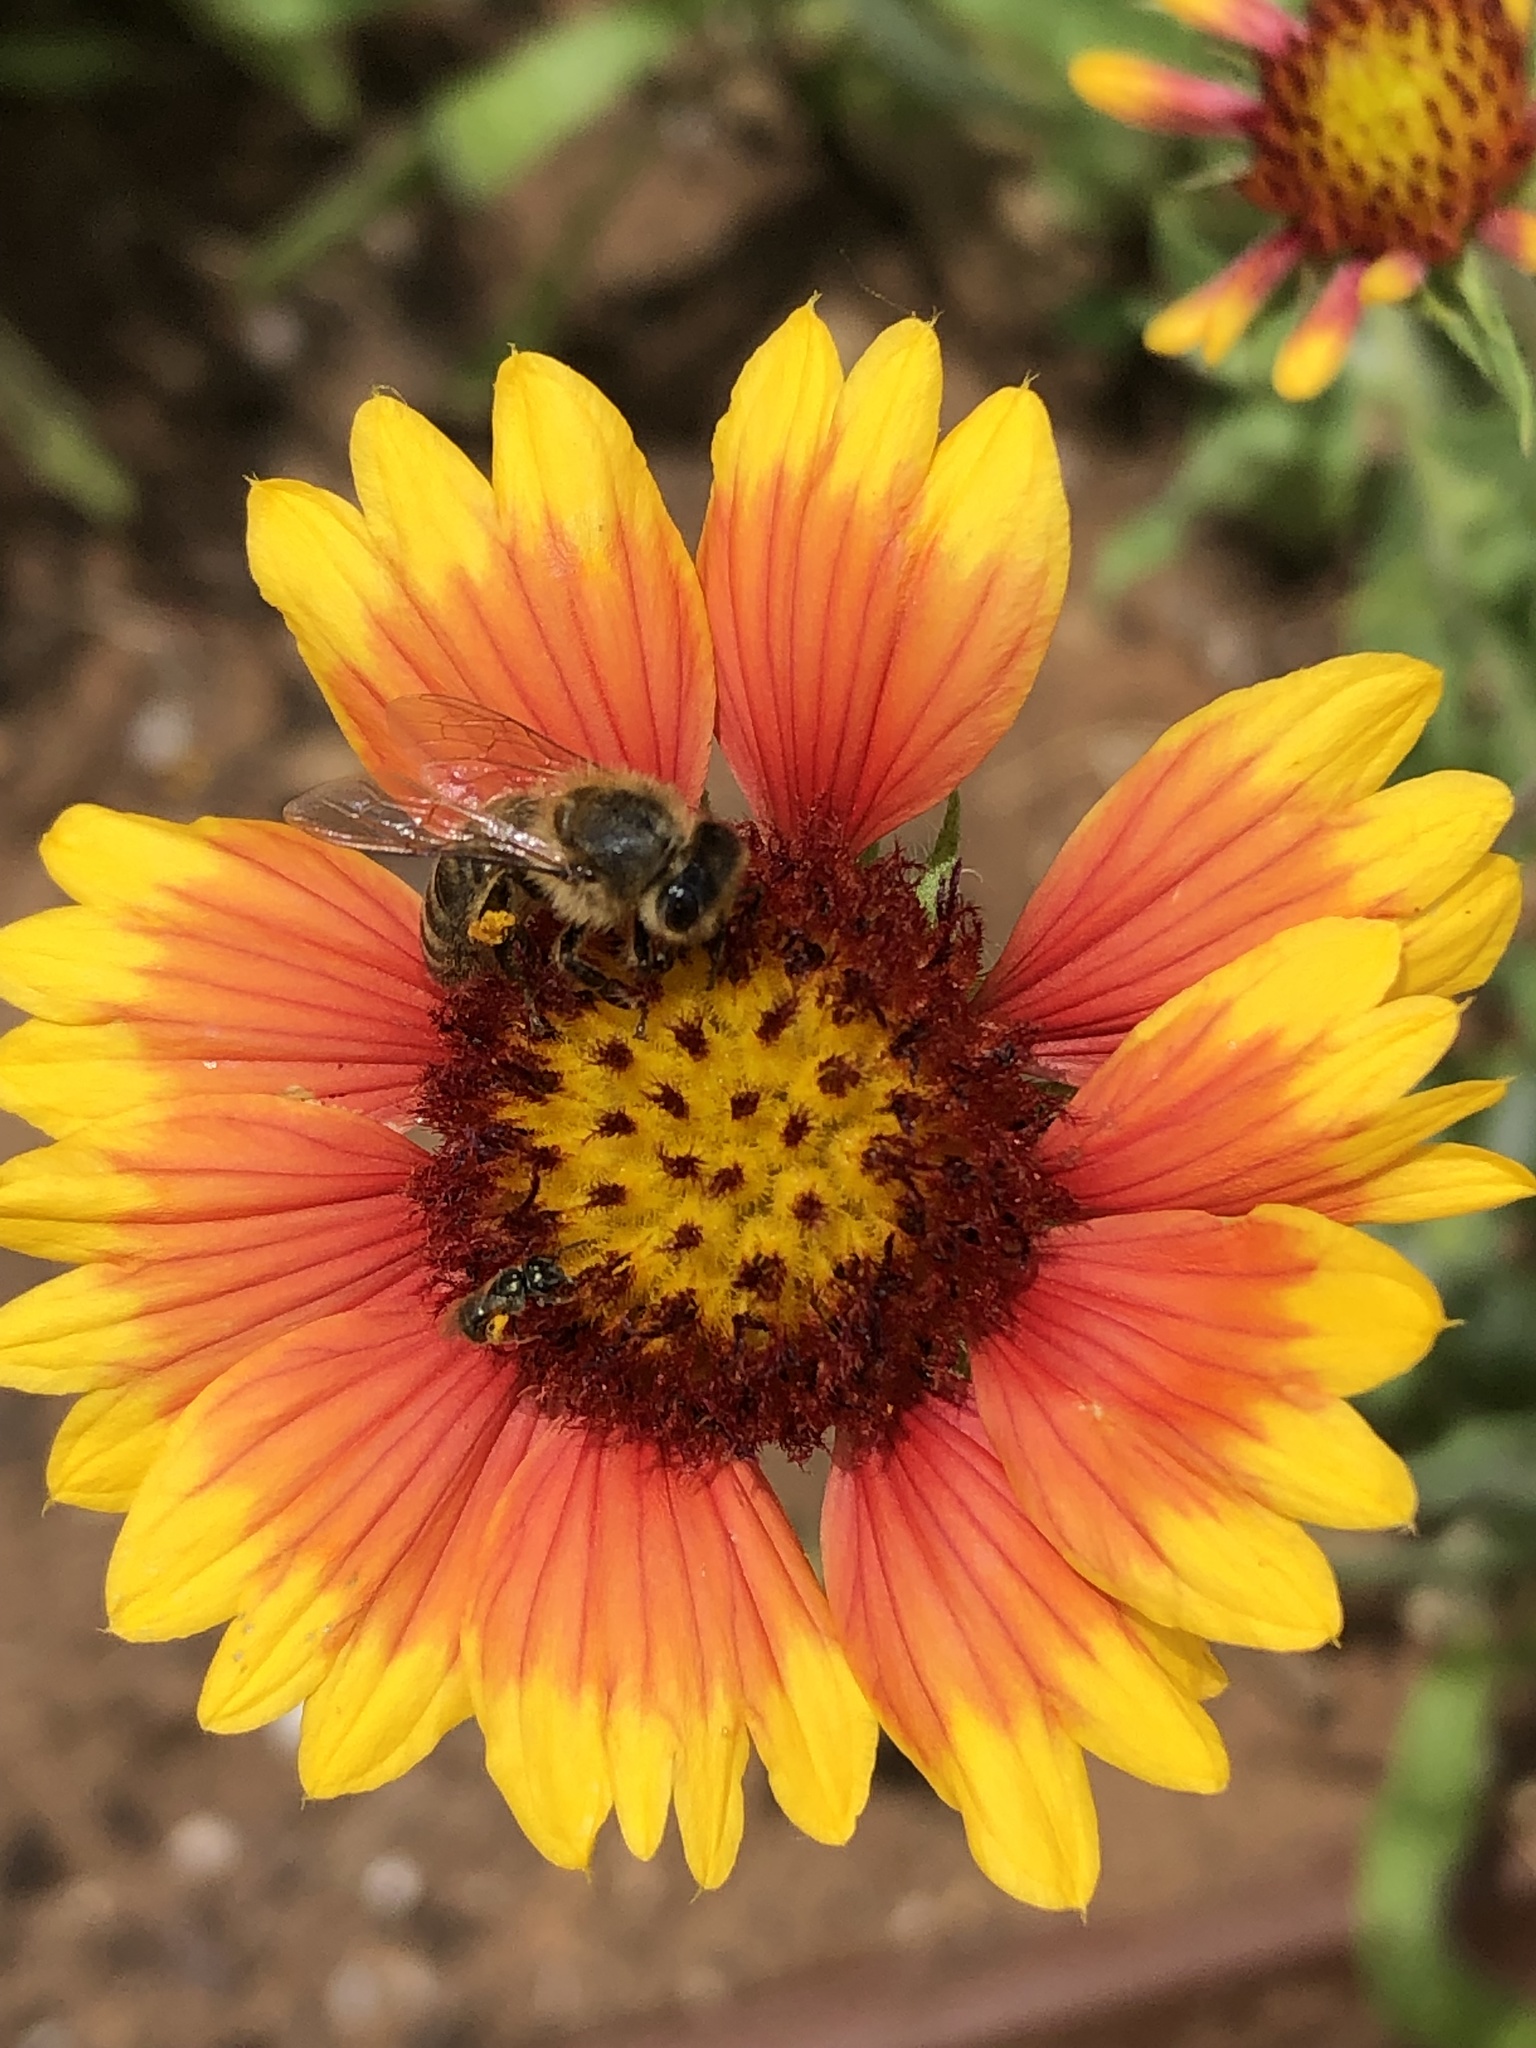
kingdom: Animalia
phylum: Arthropoda
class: Insecta
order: Hymenoptera
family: Apidae
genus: Apis
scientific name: Apis mellifera
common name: Honey bee
